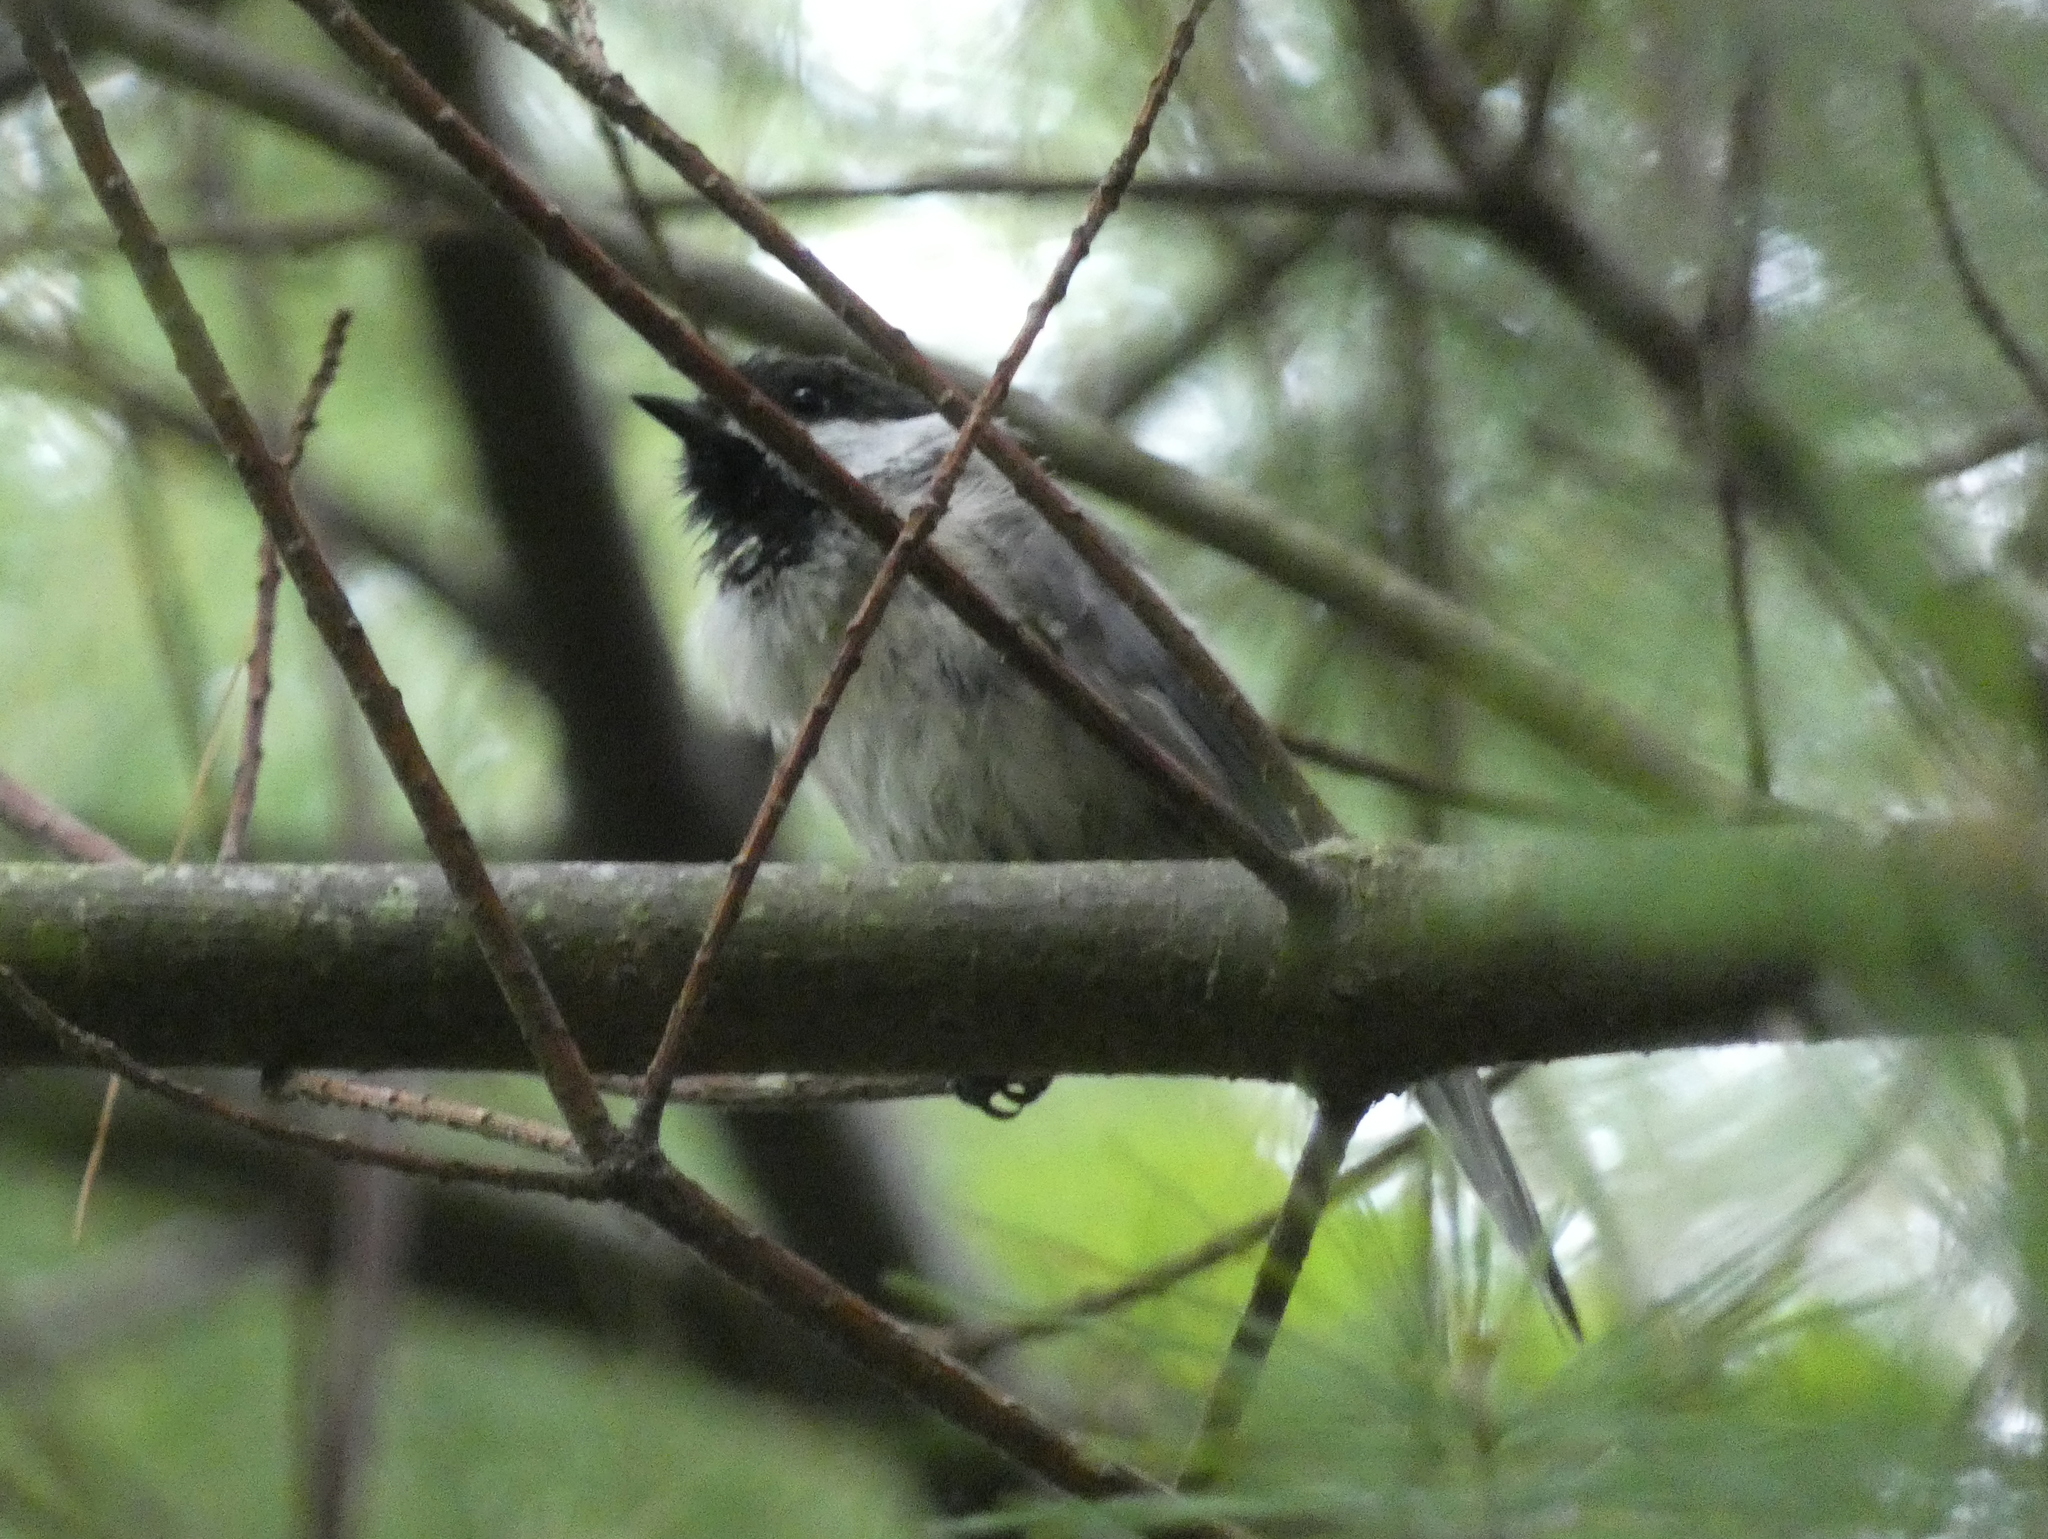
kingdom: Animalia
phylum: Chordata
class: Aves
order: Passeriformes
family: Paridae
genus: Poecile
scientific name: Poecile atricapillus
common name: Black-capped chickadee
